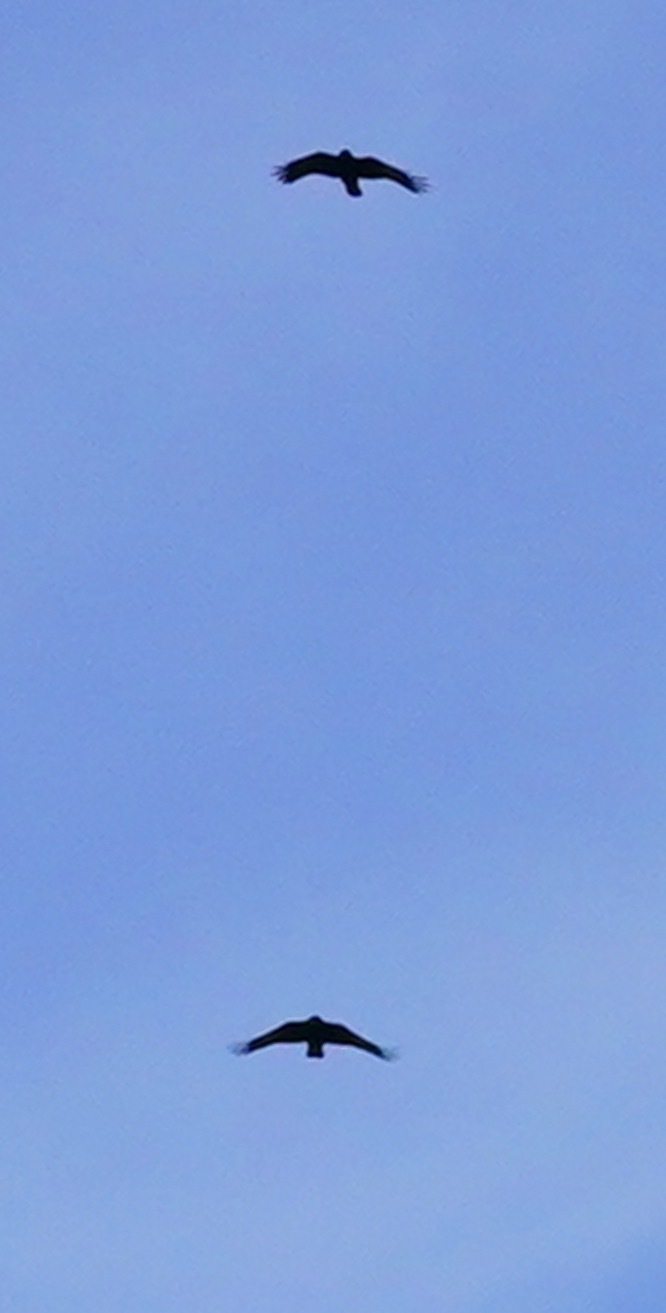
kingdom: Animalia
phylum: Chordata
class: Aves
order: Passeriformes
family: Corvidae
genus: Corvus
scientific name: Corvus brachyrhynchos
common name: American crow
